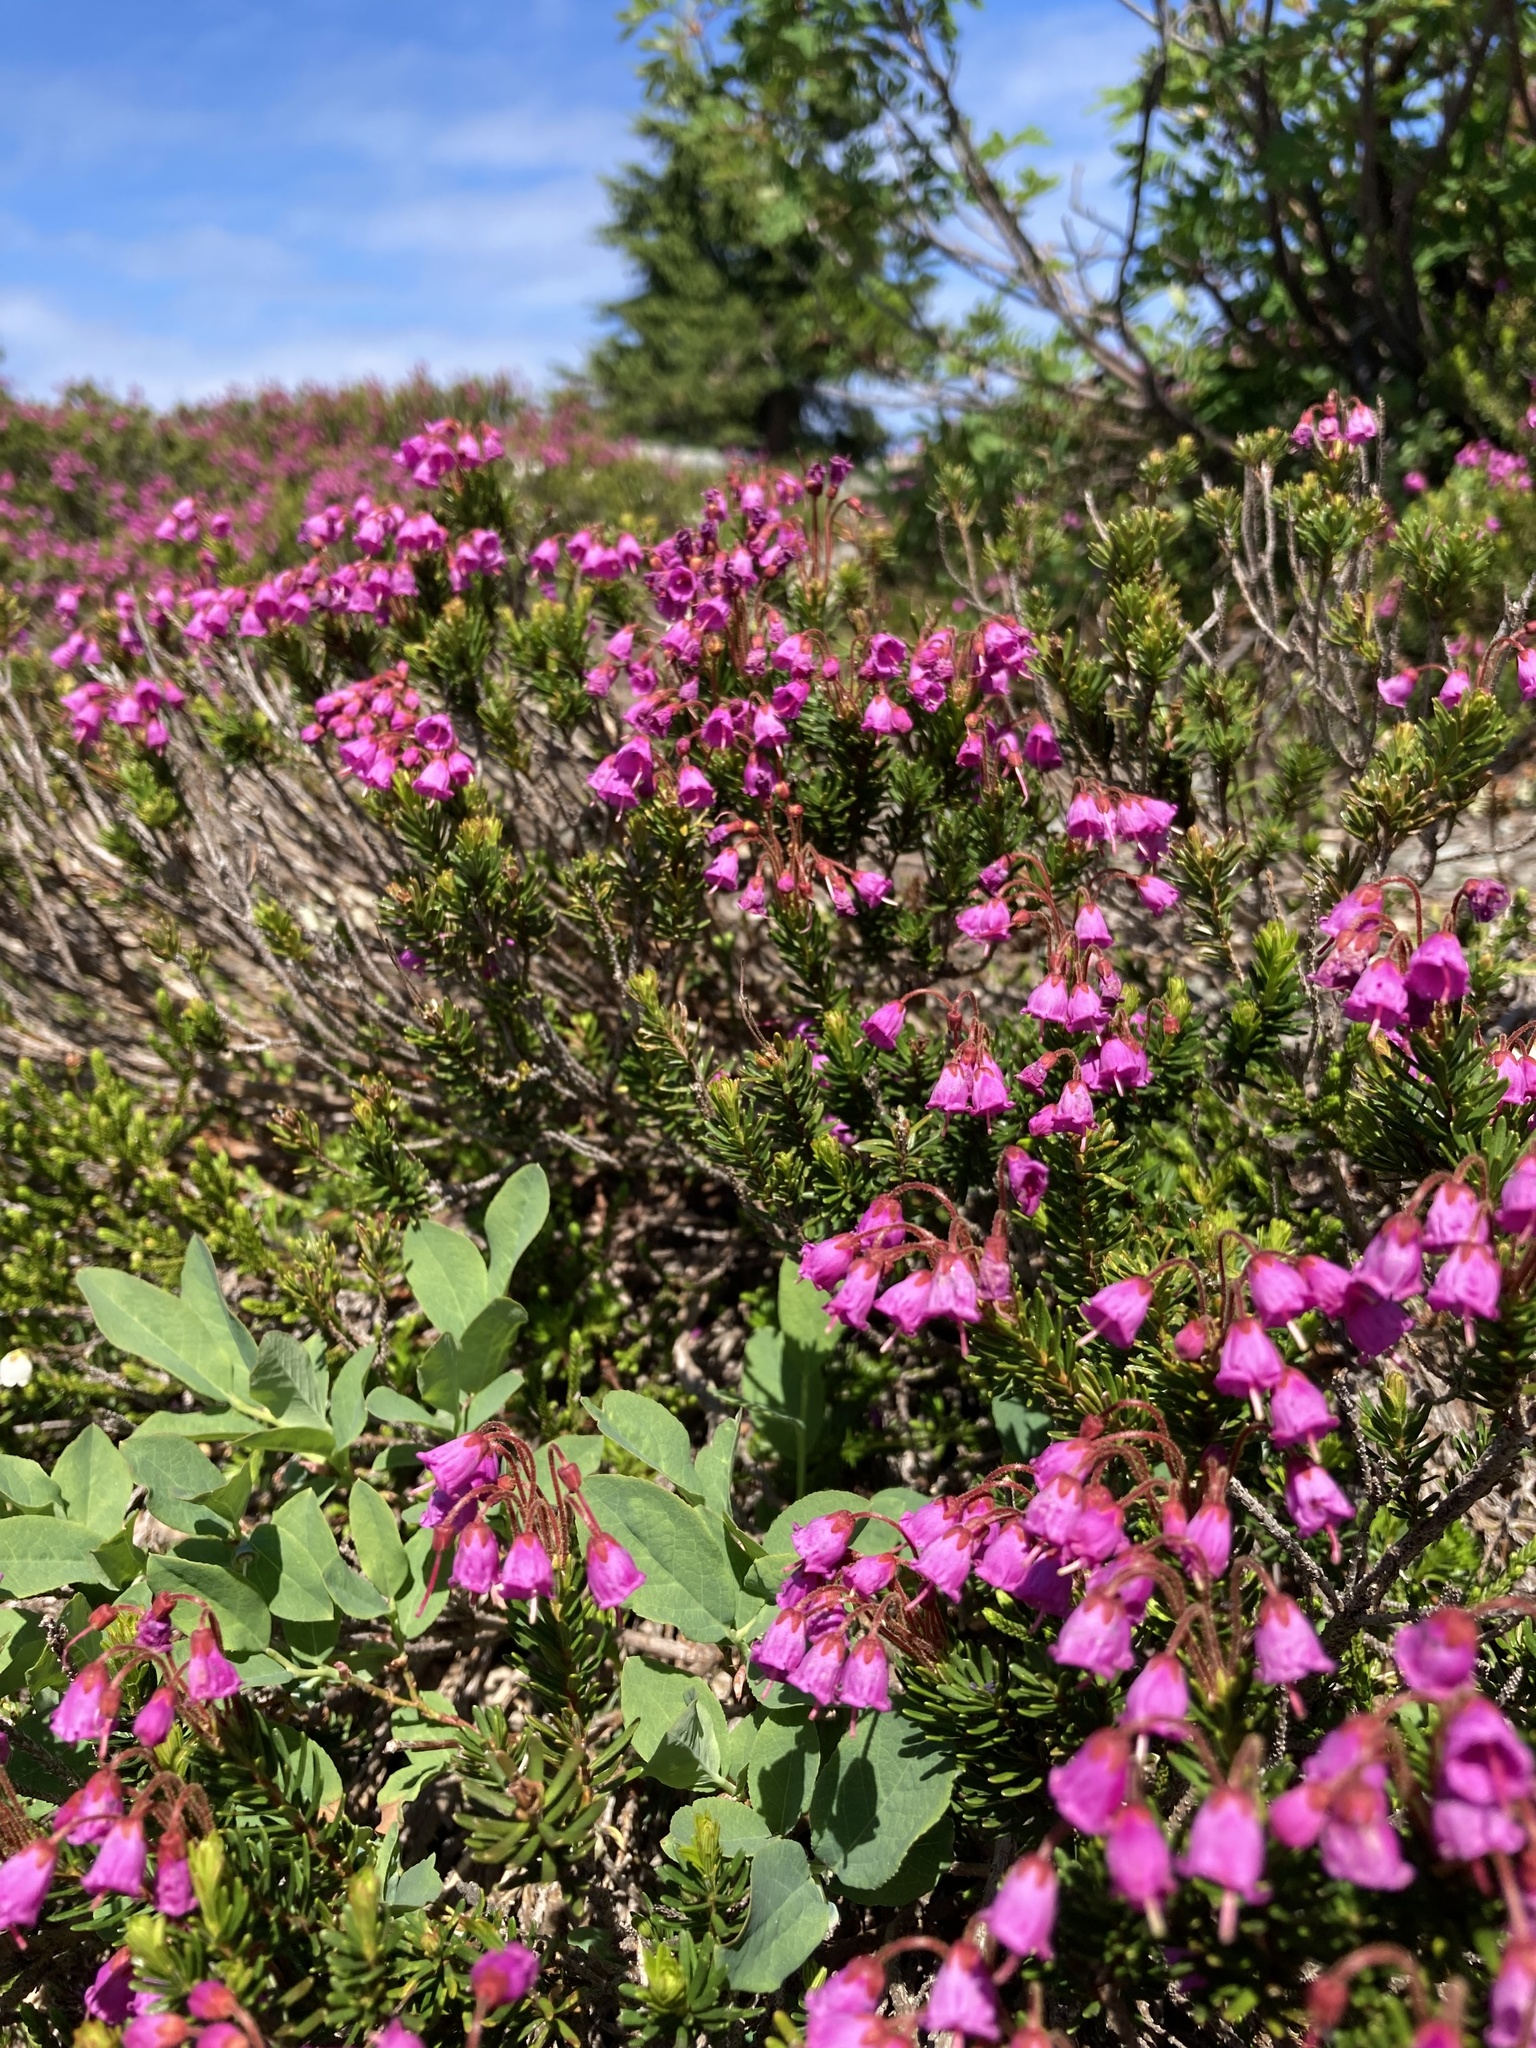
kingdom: Plantae
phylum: Tracheophyta
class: Magnoliopsida
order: Ericales
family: Ericaceae
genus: Phyllodoce
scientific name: Phyllodoce empetriformis
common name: Pink mountain heather
